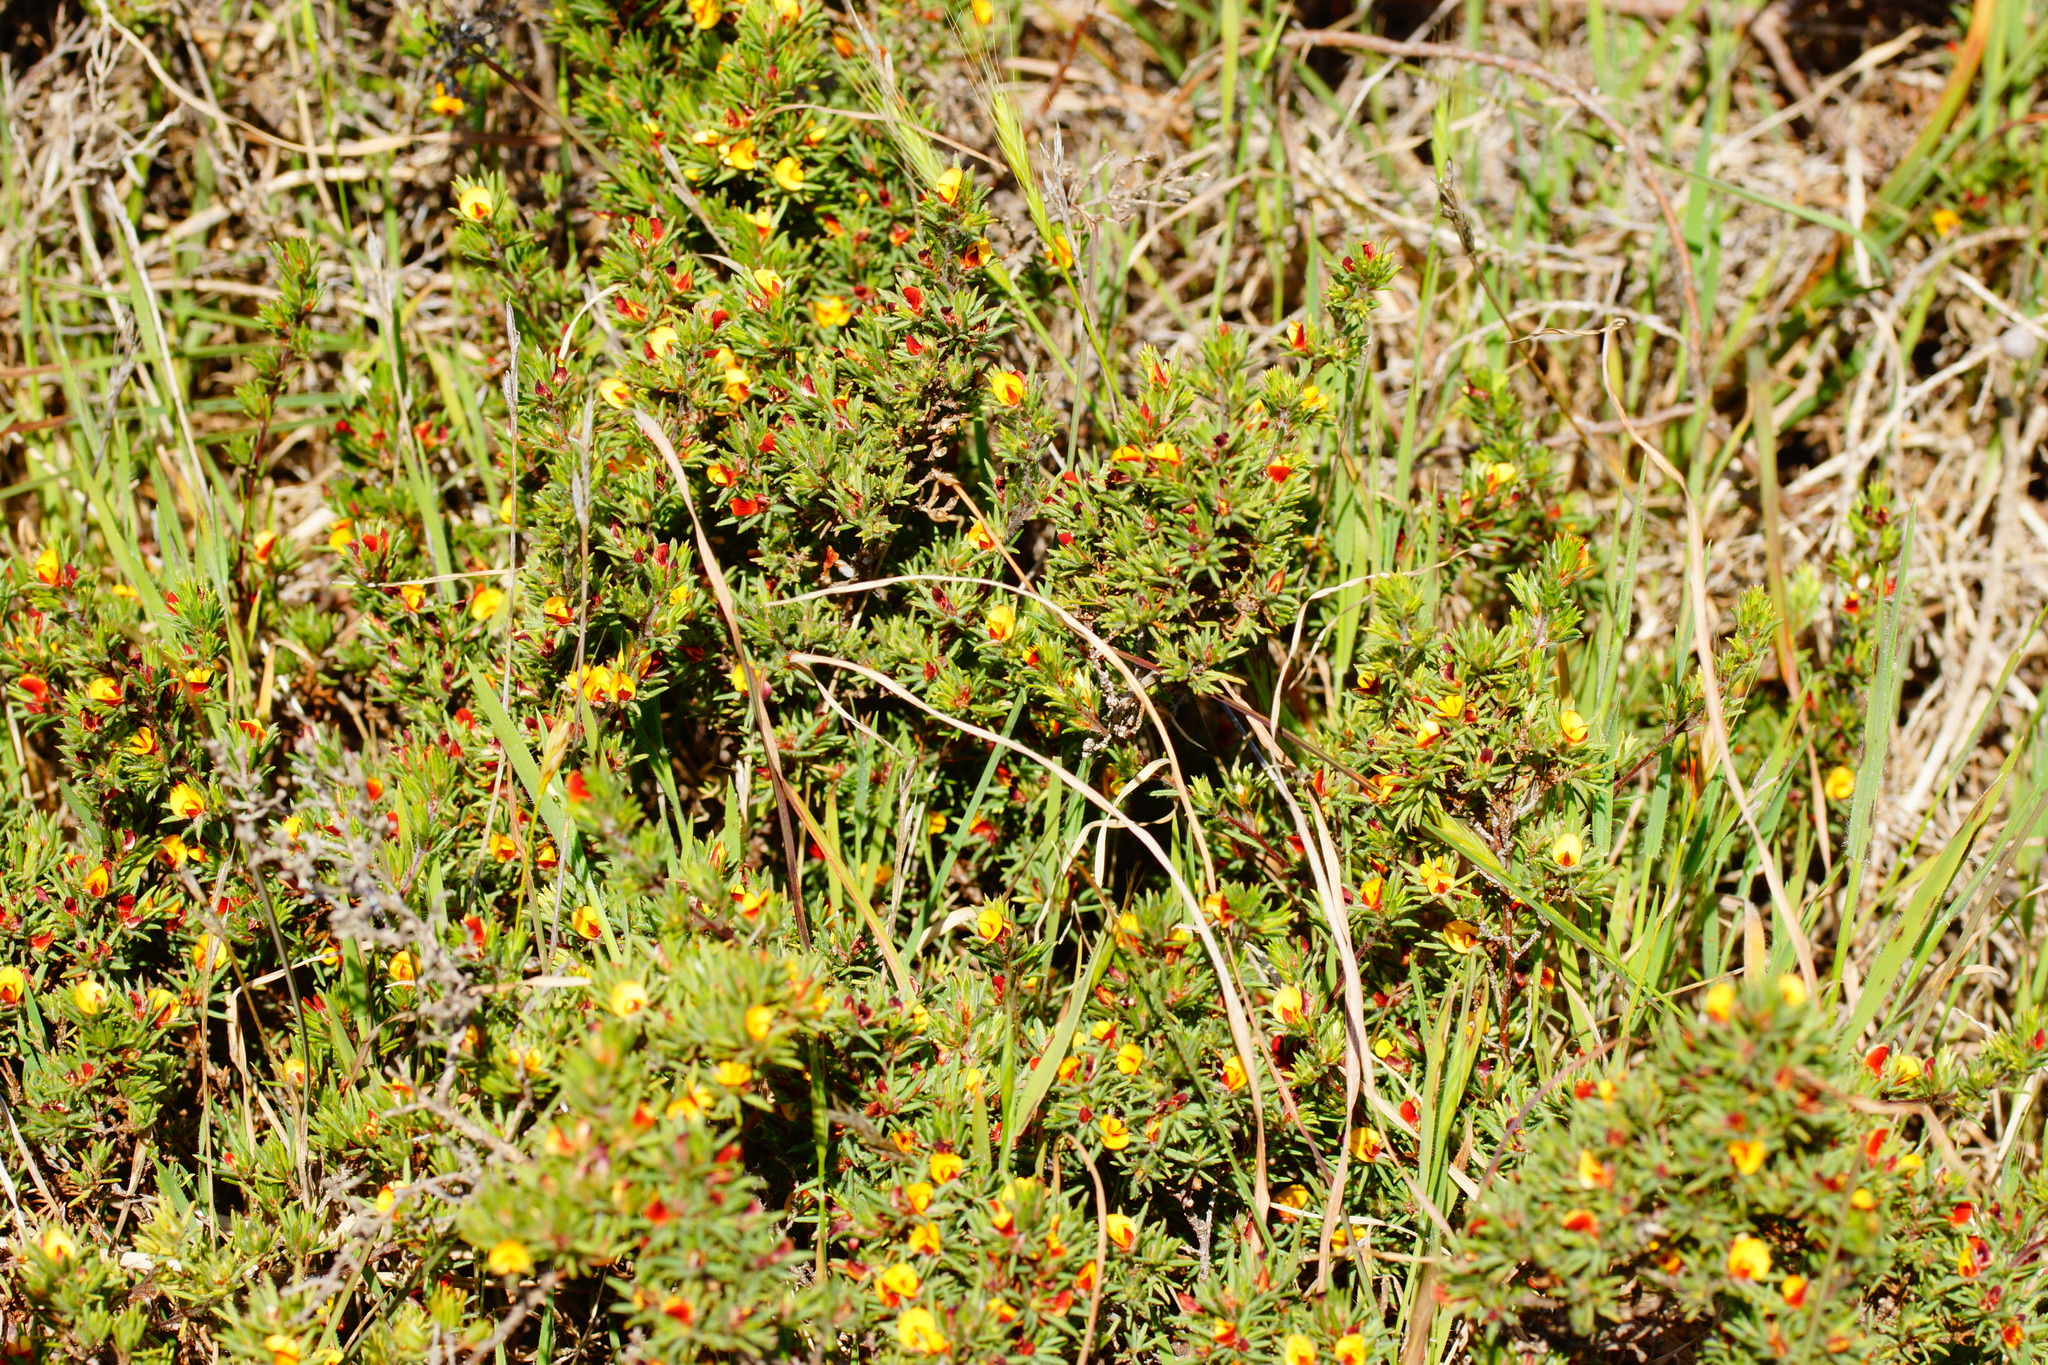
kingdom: Plantae
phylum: Tracheophyta
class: Magnoliopsida
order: Fabales
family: Fabaceae
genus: Pultenaea
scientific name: Pultenaea tenuifolia
